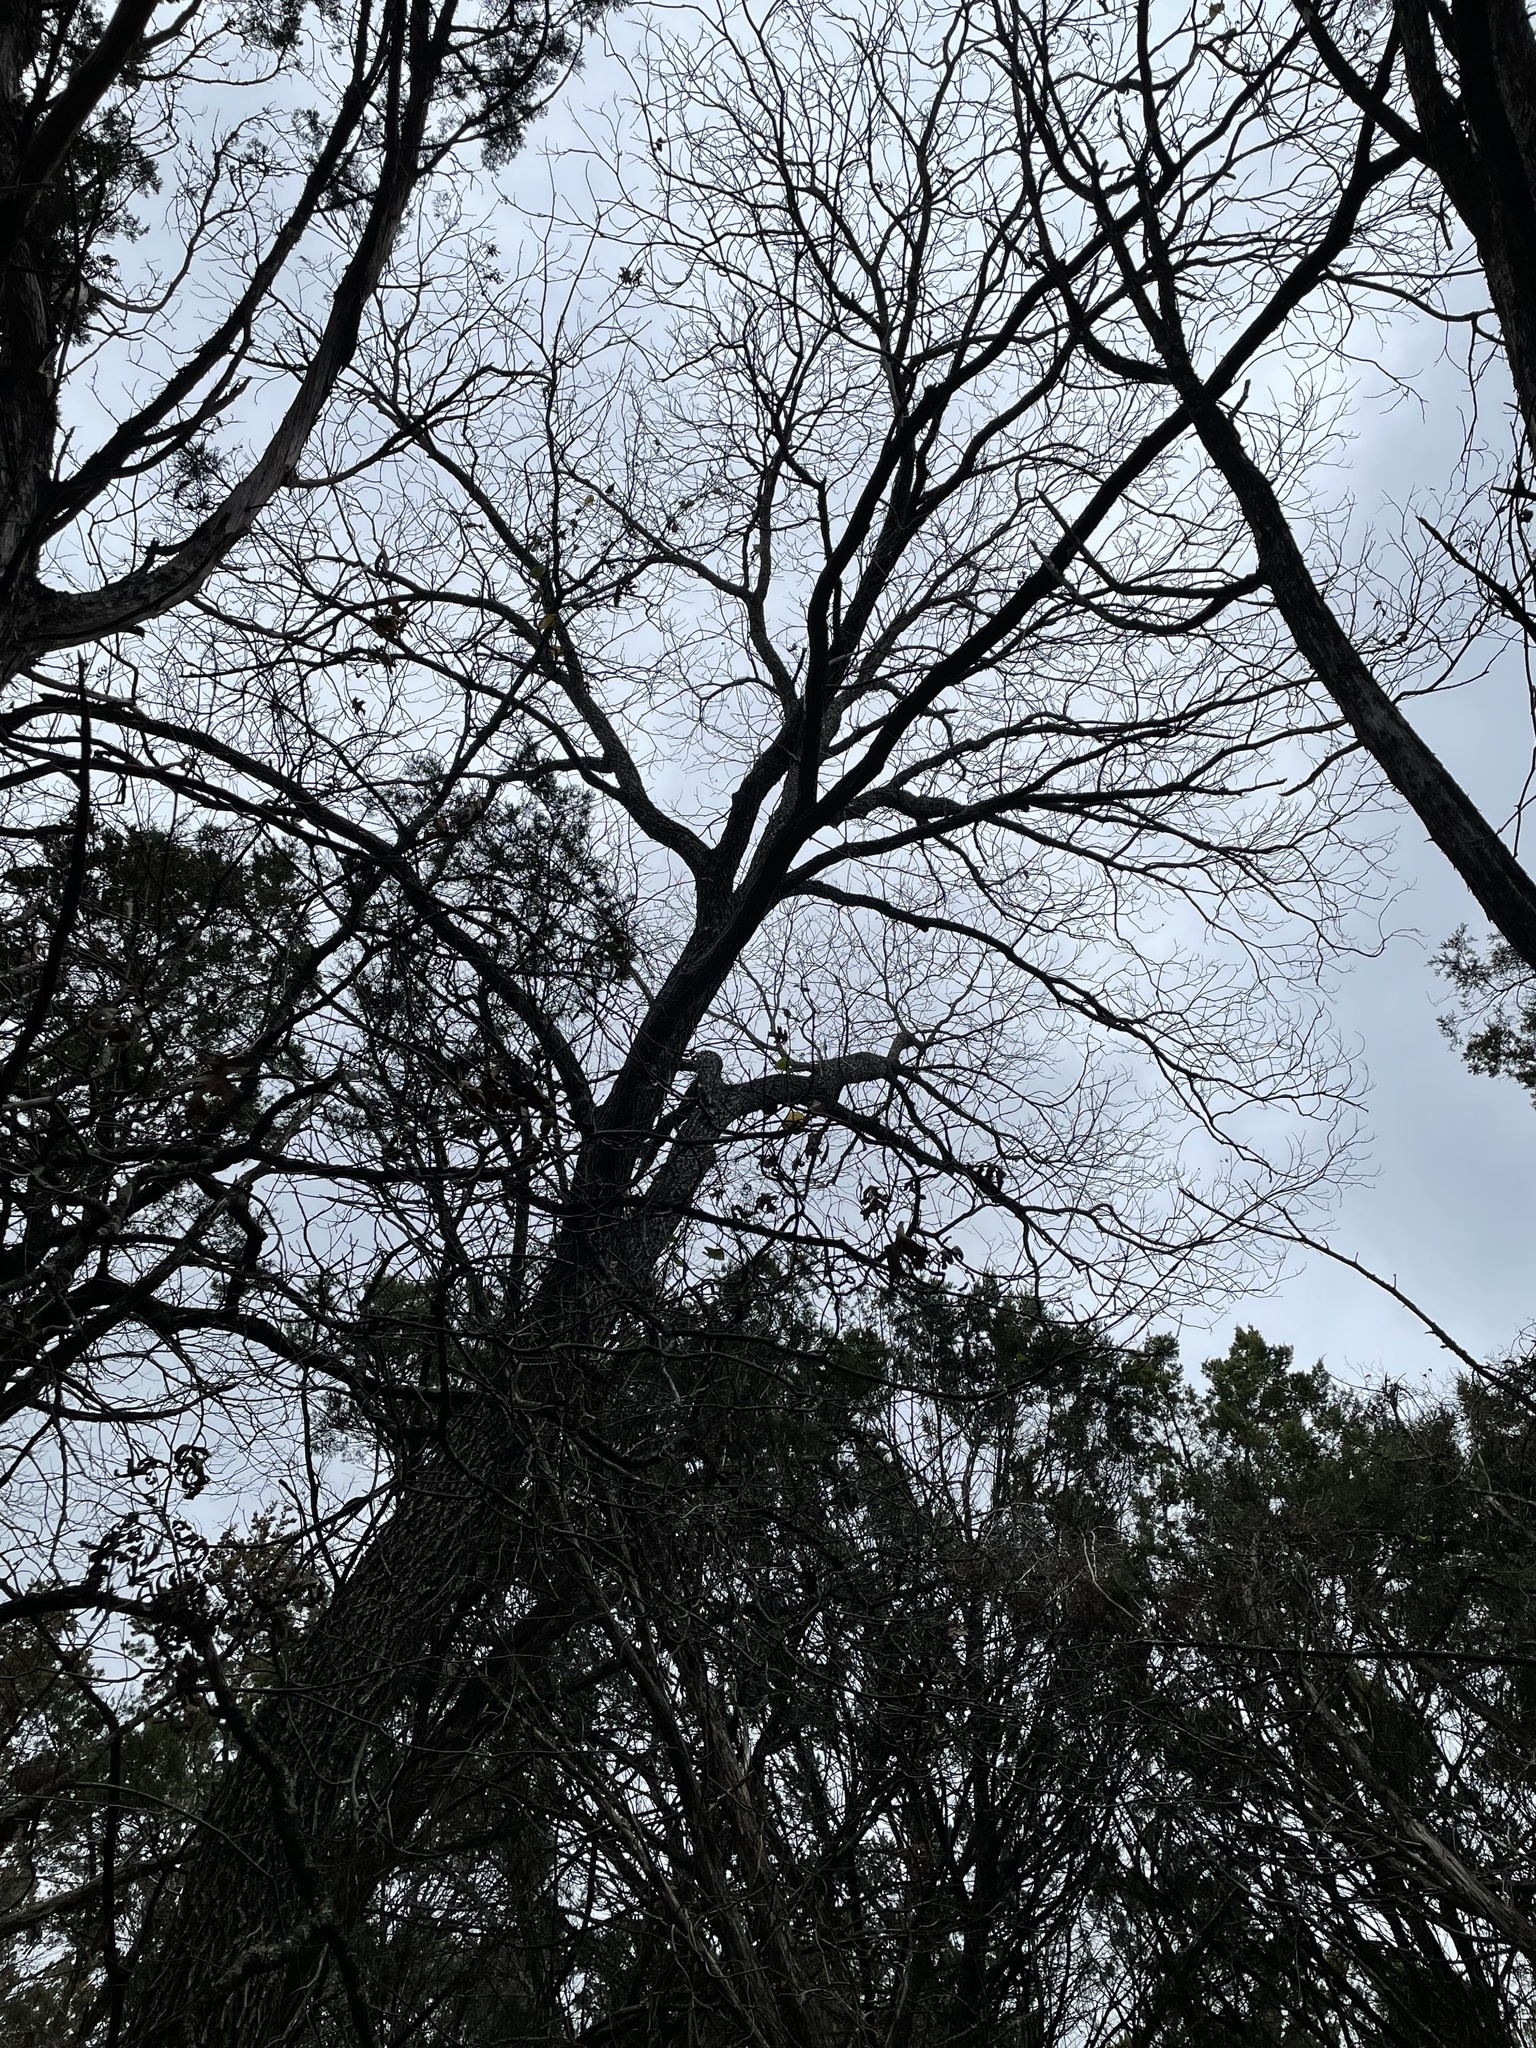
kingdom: Plantae
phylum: Tracheophyta
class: Magnoliopsida
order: Fagales
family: Juglandaceae
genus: Carya
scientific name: Carya illinoinensis
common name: Pecan
